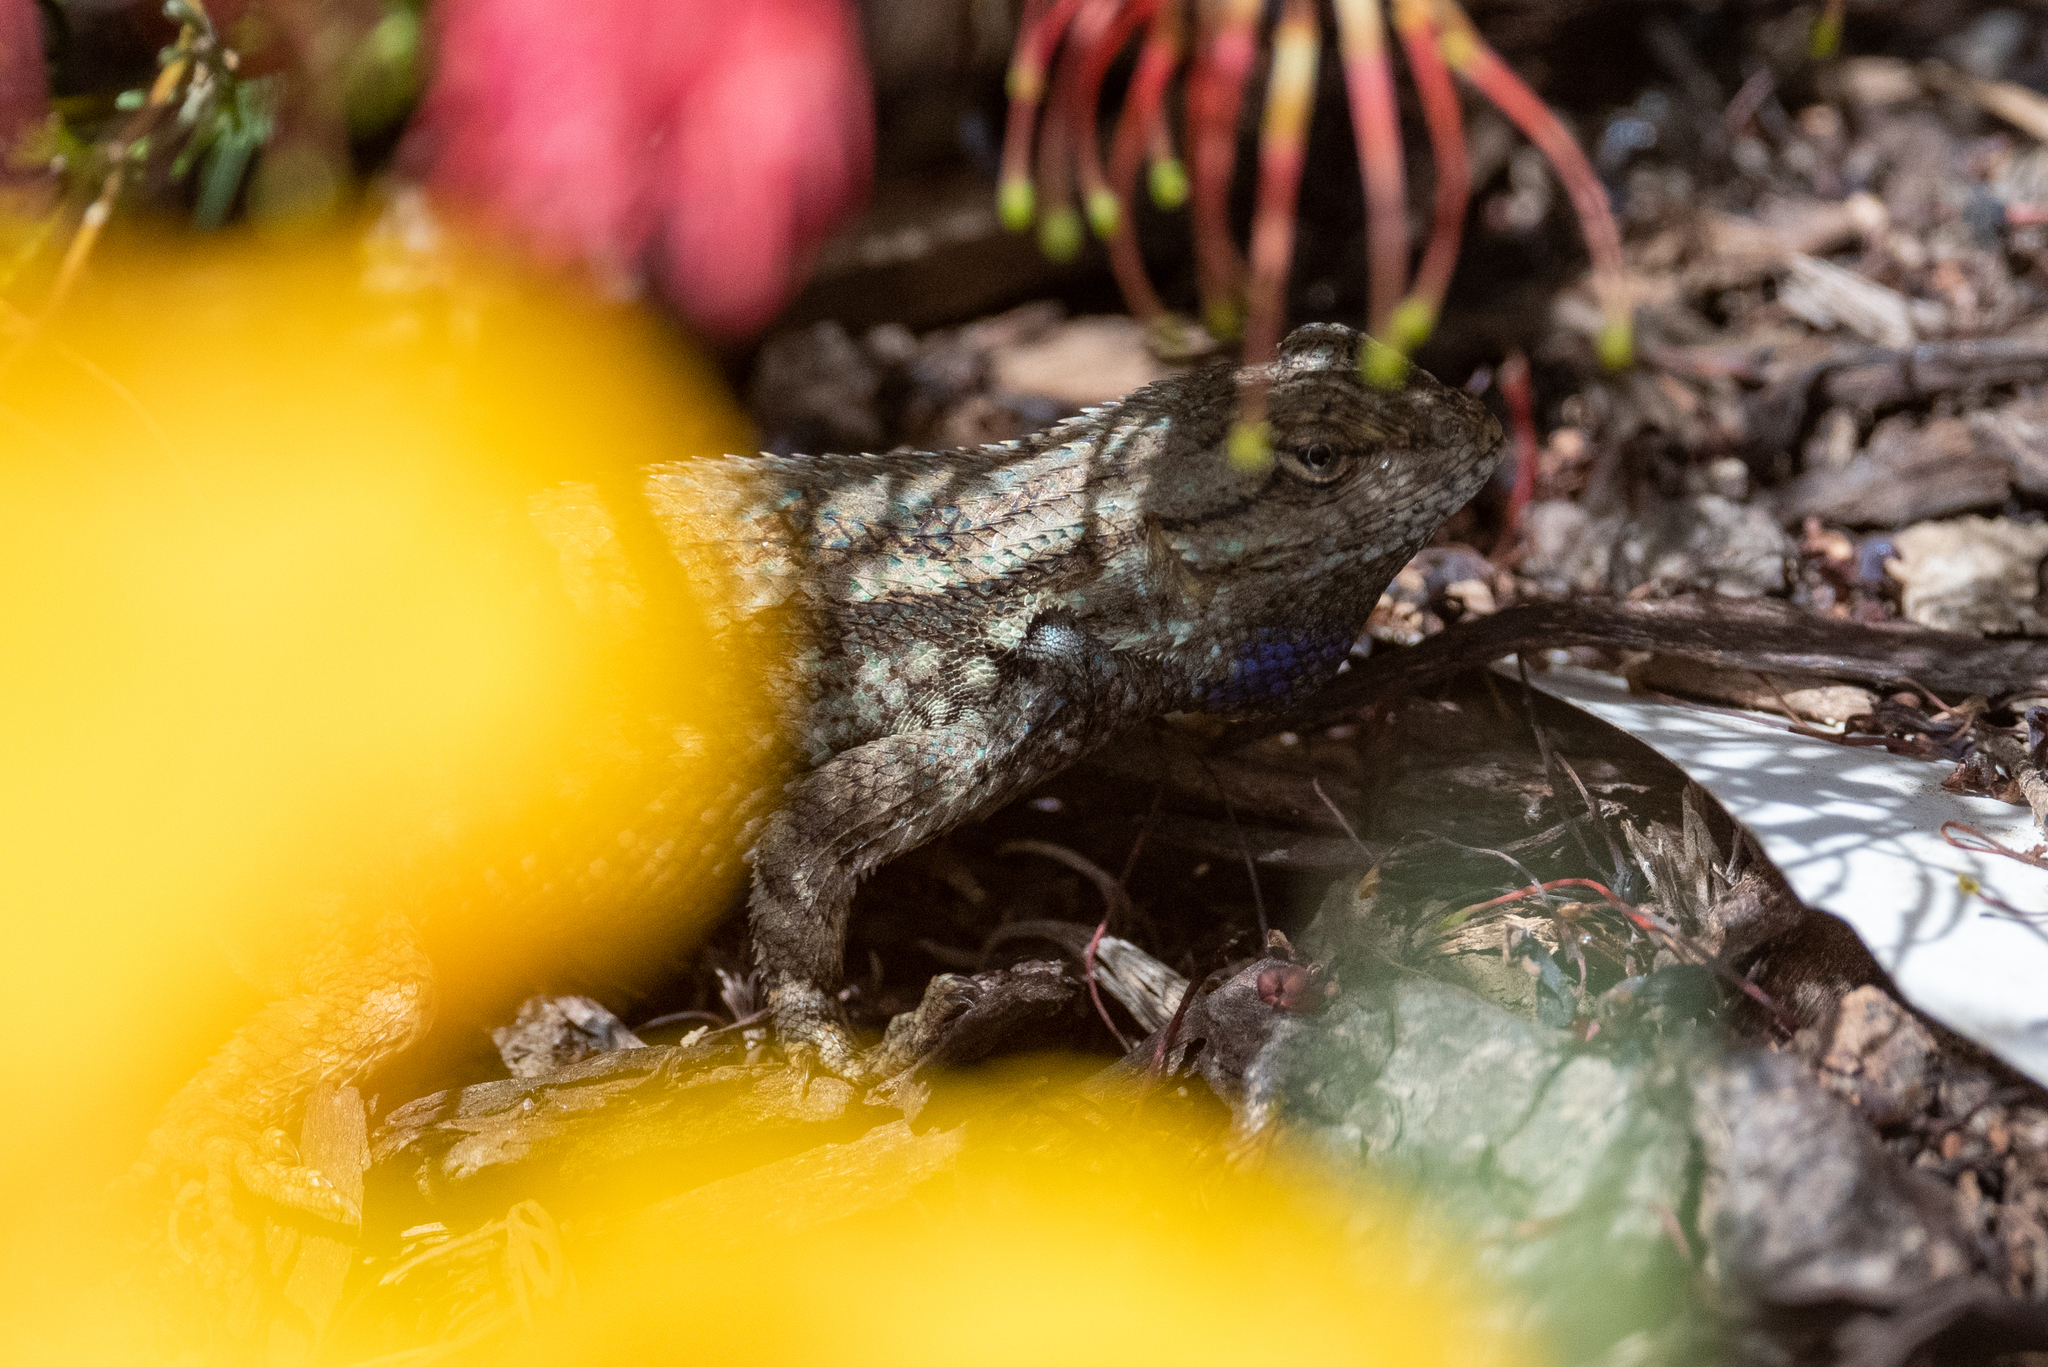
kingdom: Animalia
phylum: Chordata
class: Squamata
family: Phrynosomatidae
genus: Sceloporus
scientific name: Sceloporus occidentalis
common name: Western fence lizard
